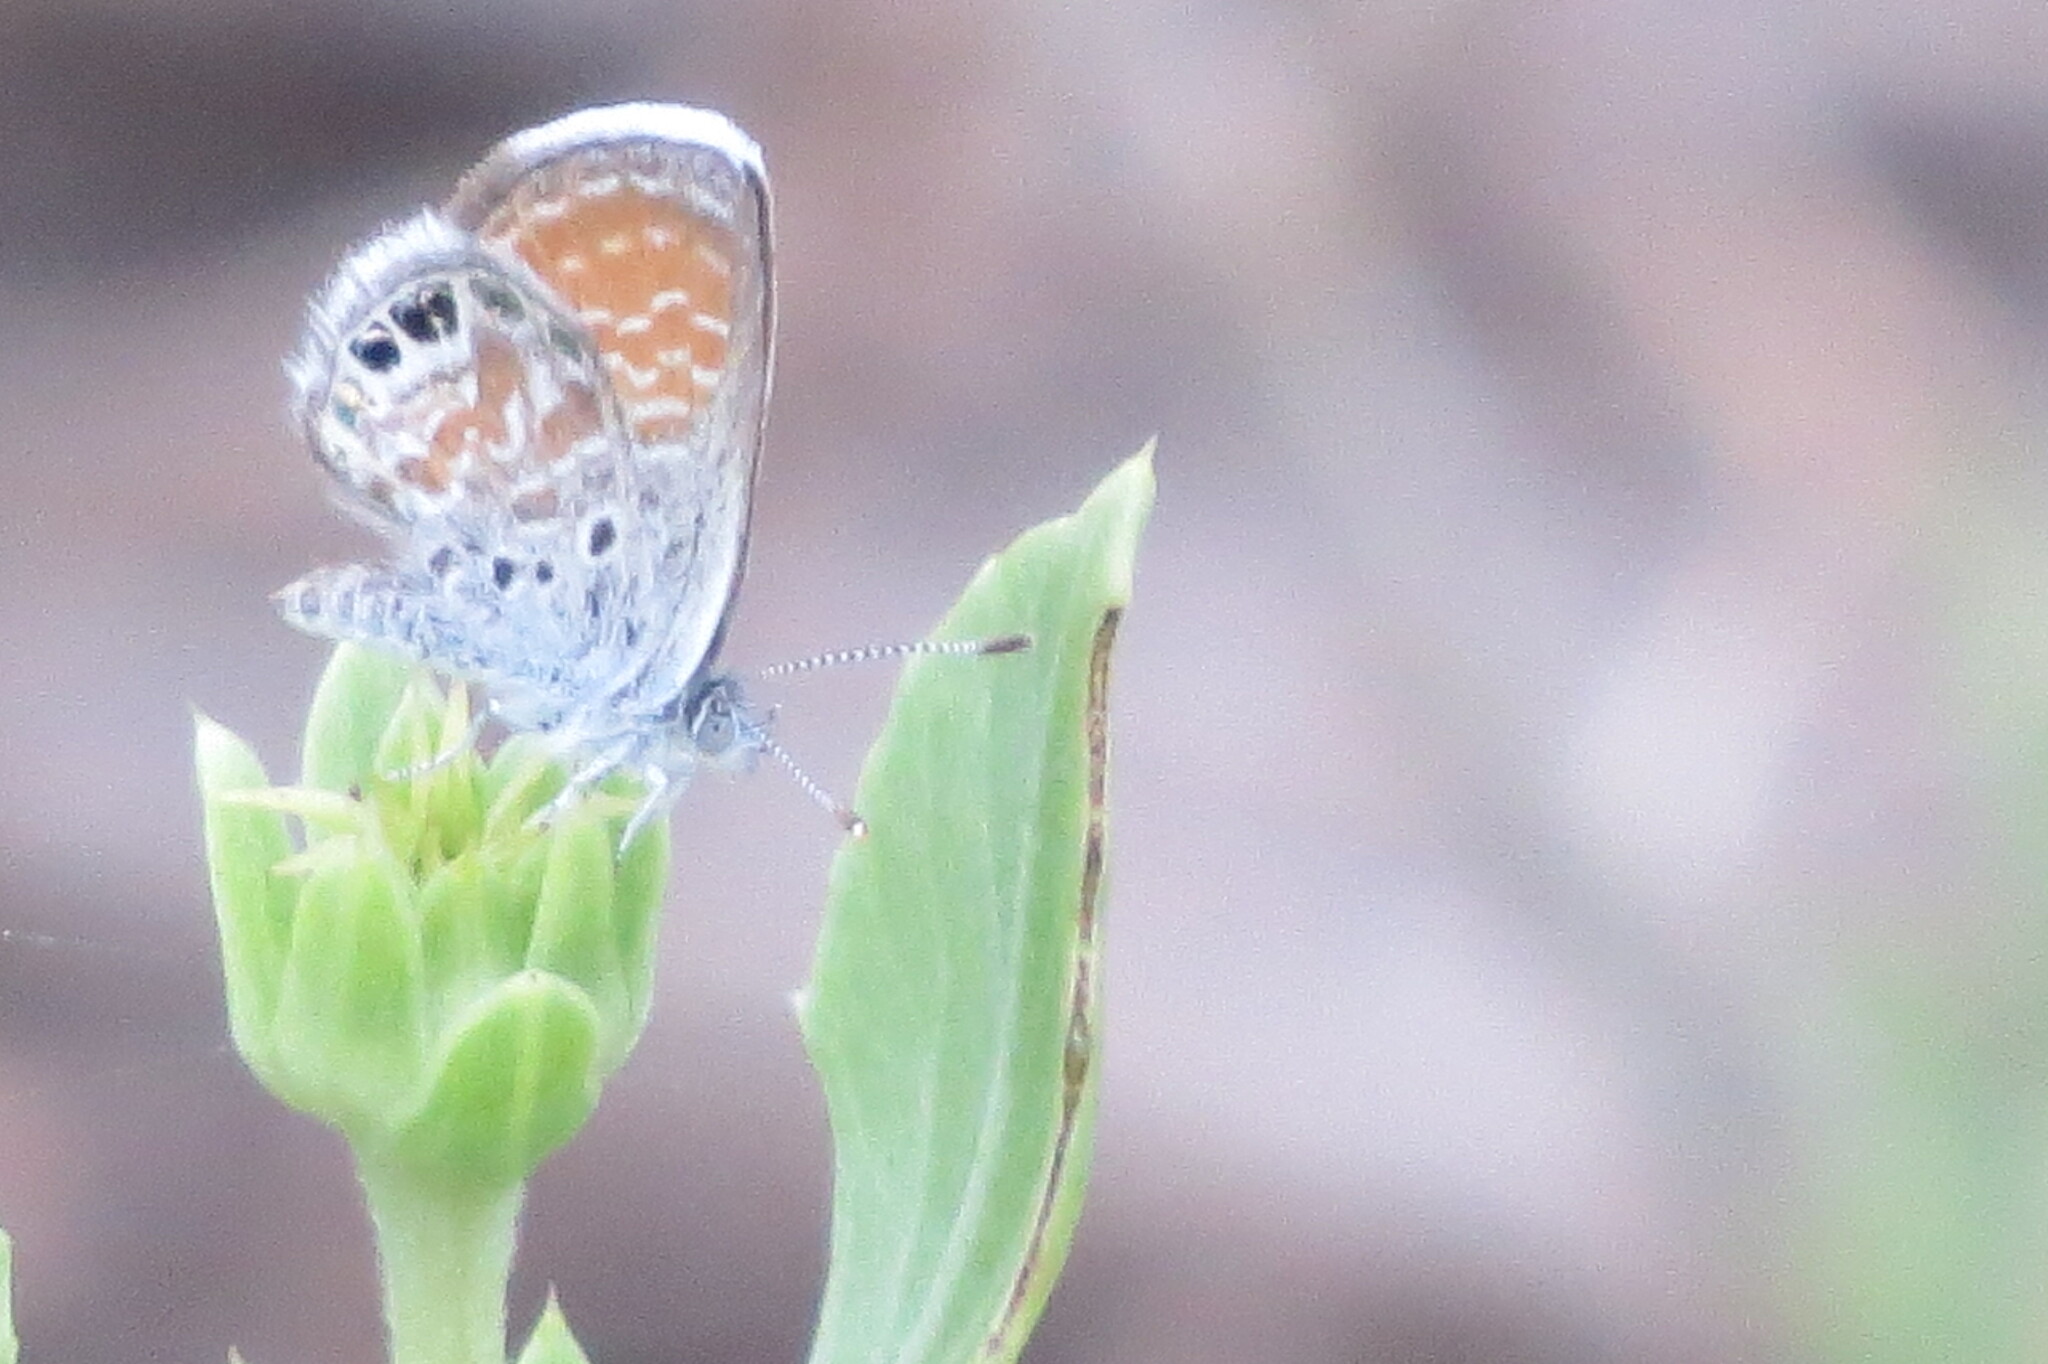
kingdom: Animalia
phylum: Arthropoda
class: Insecta
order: Lepidoptera
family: Lycaenidae
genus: Brephidium
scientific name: Brephidium exilis
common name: Pygmy blue
